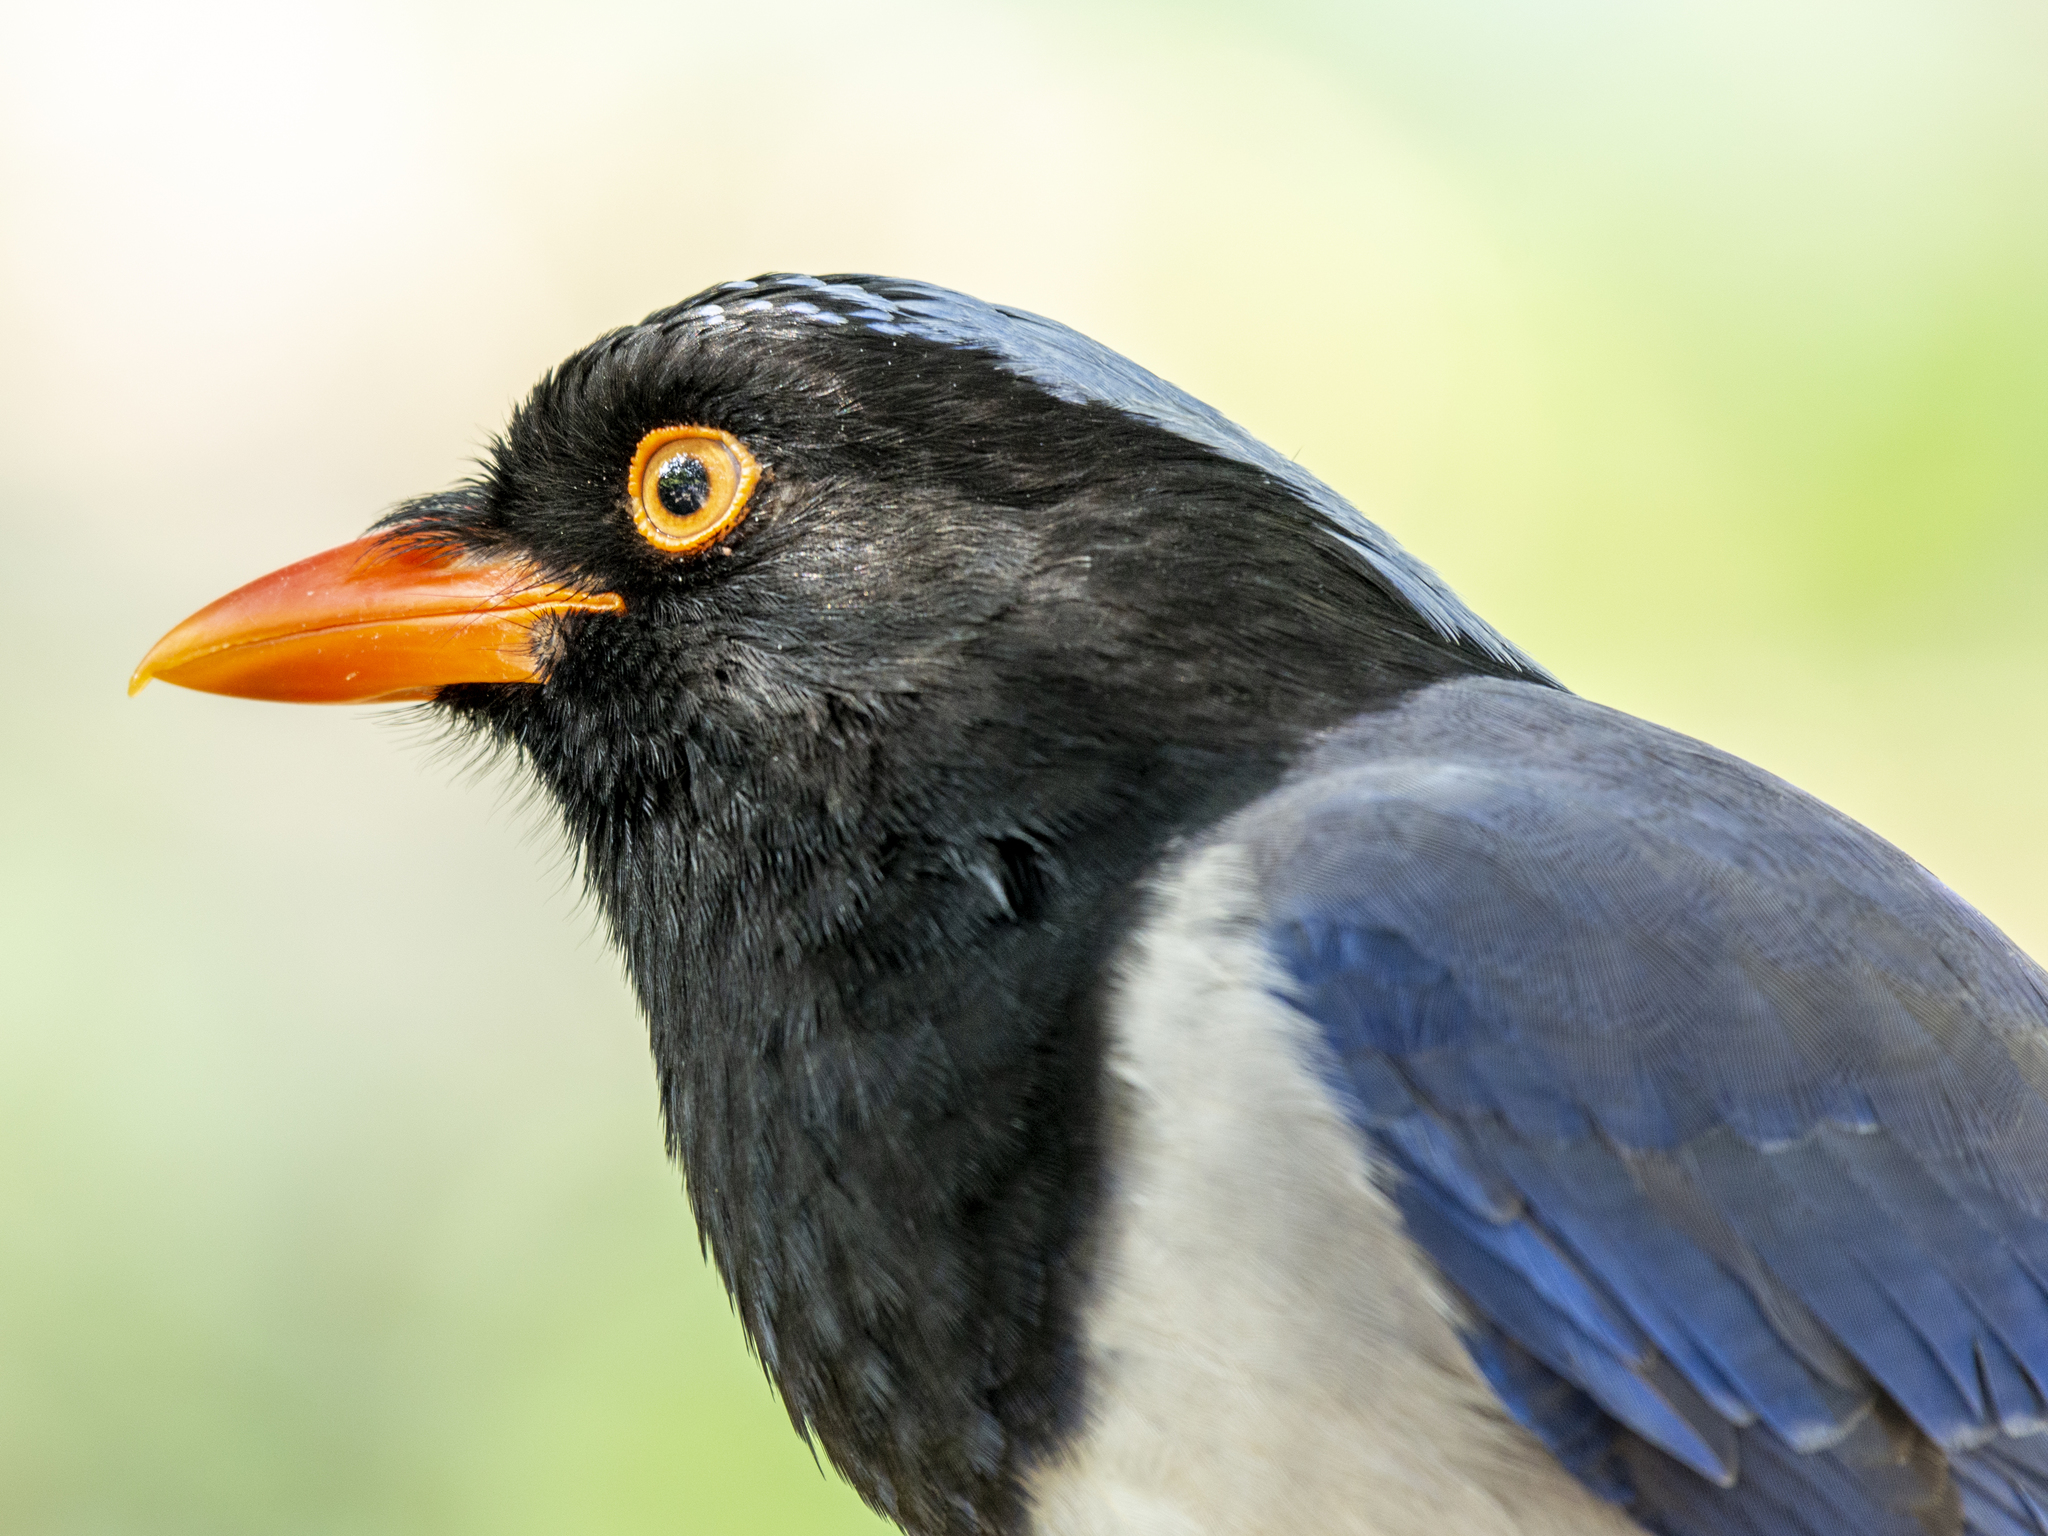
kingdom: Animalia
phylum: Chordata
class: Aves
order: Passeriformes
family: Corvidae
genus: Urocissa
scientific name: Urocissa erythroryncha
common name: Red-billed blue magpie
